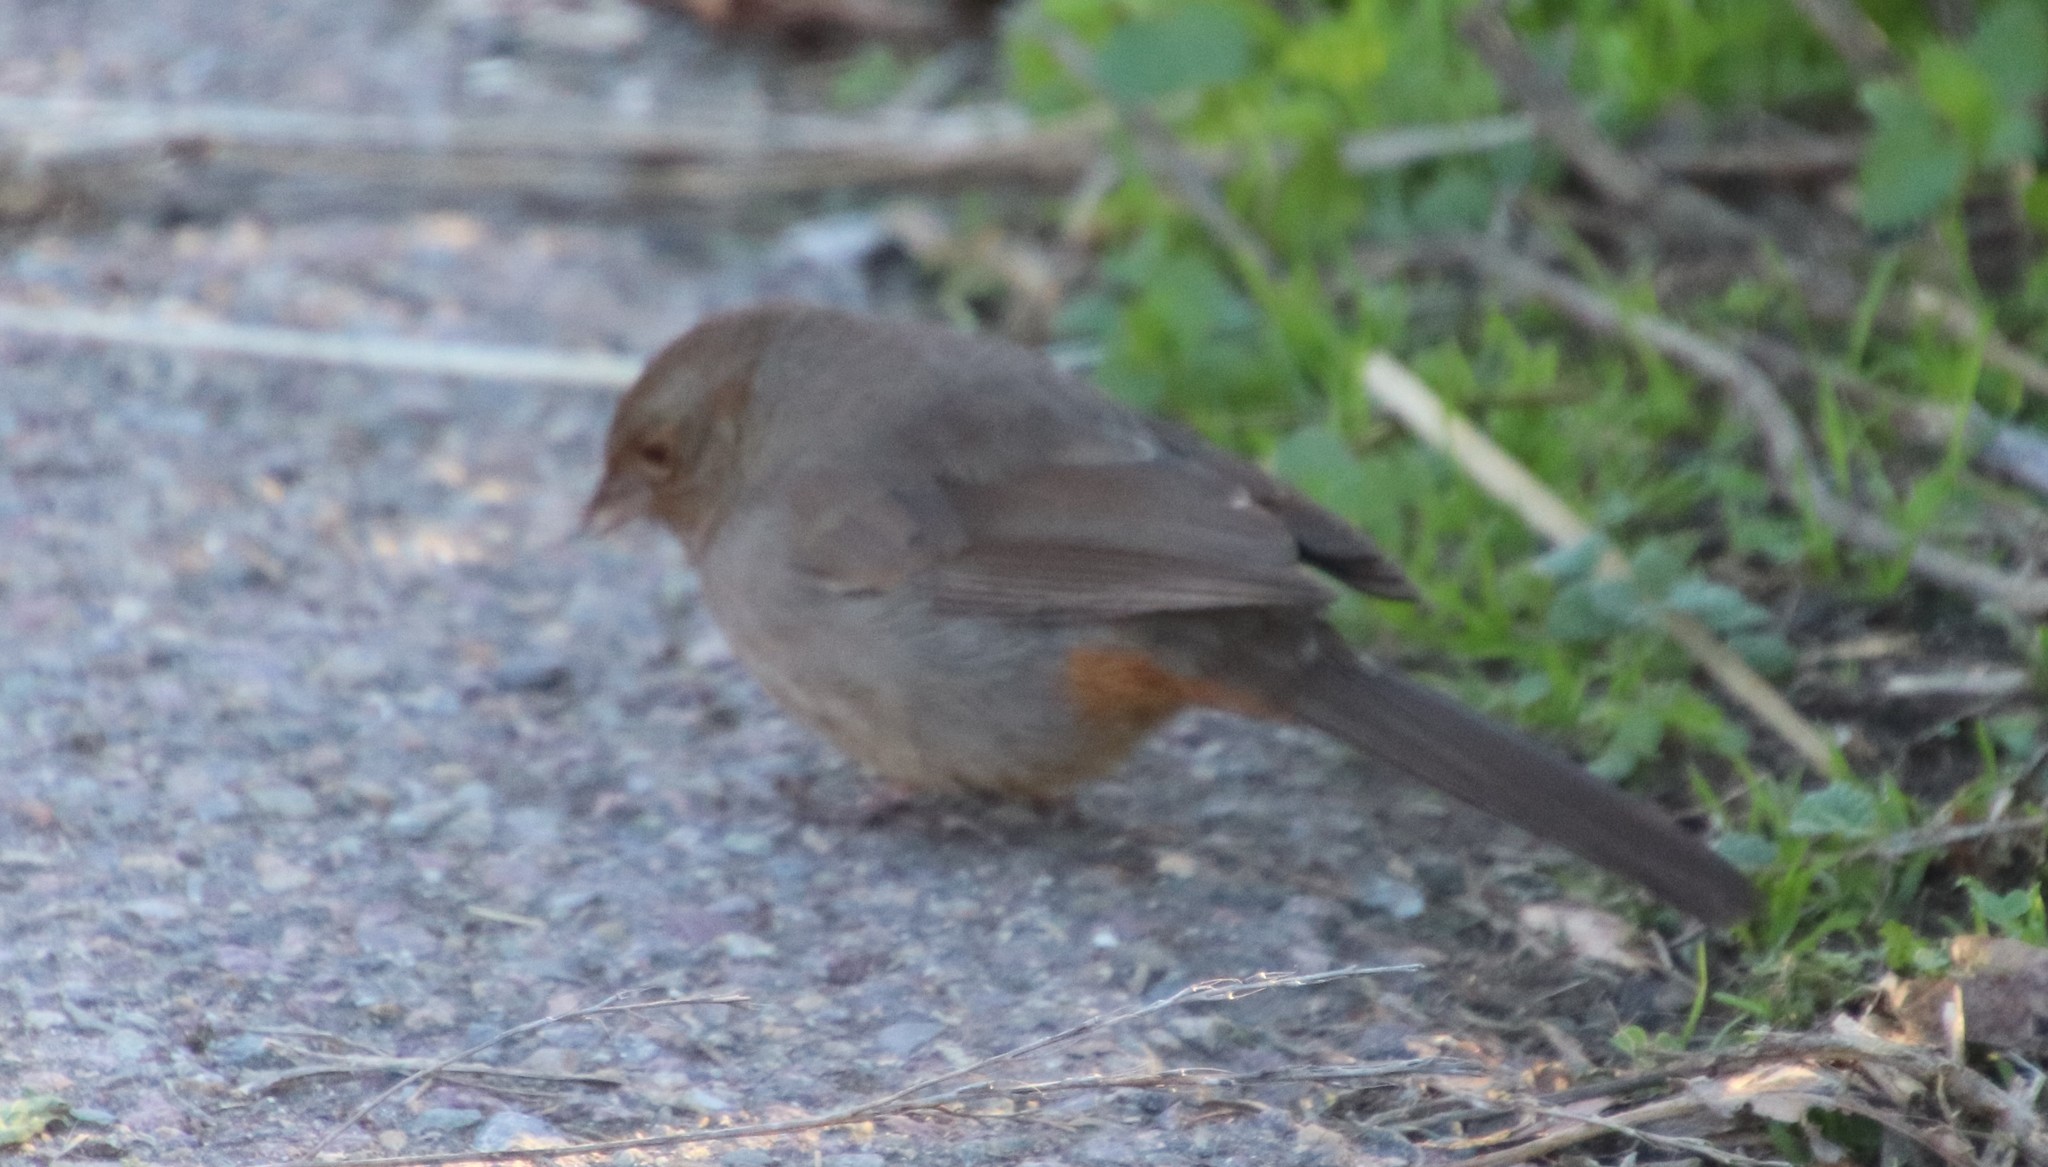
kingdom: Animalia
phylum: Chordata
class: Aves
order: Passeriformes
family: Passerellidae
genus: Melozone
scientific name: Melozone crissalis
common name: California towhee
